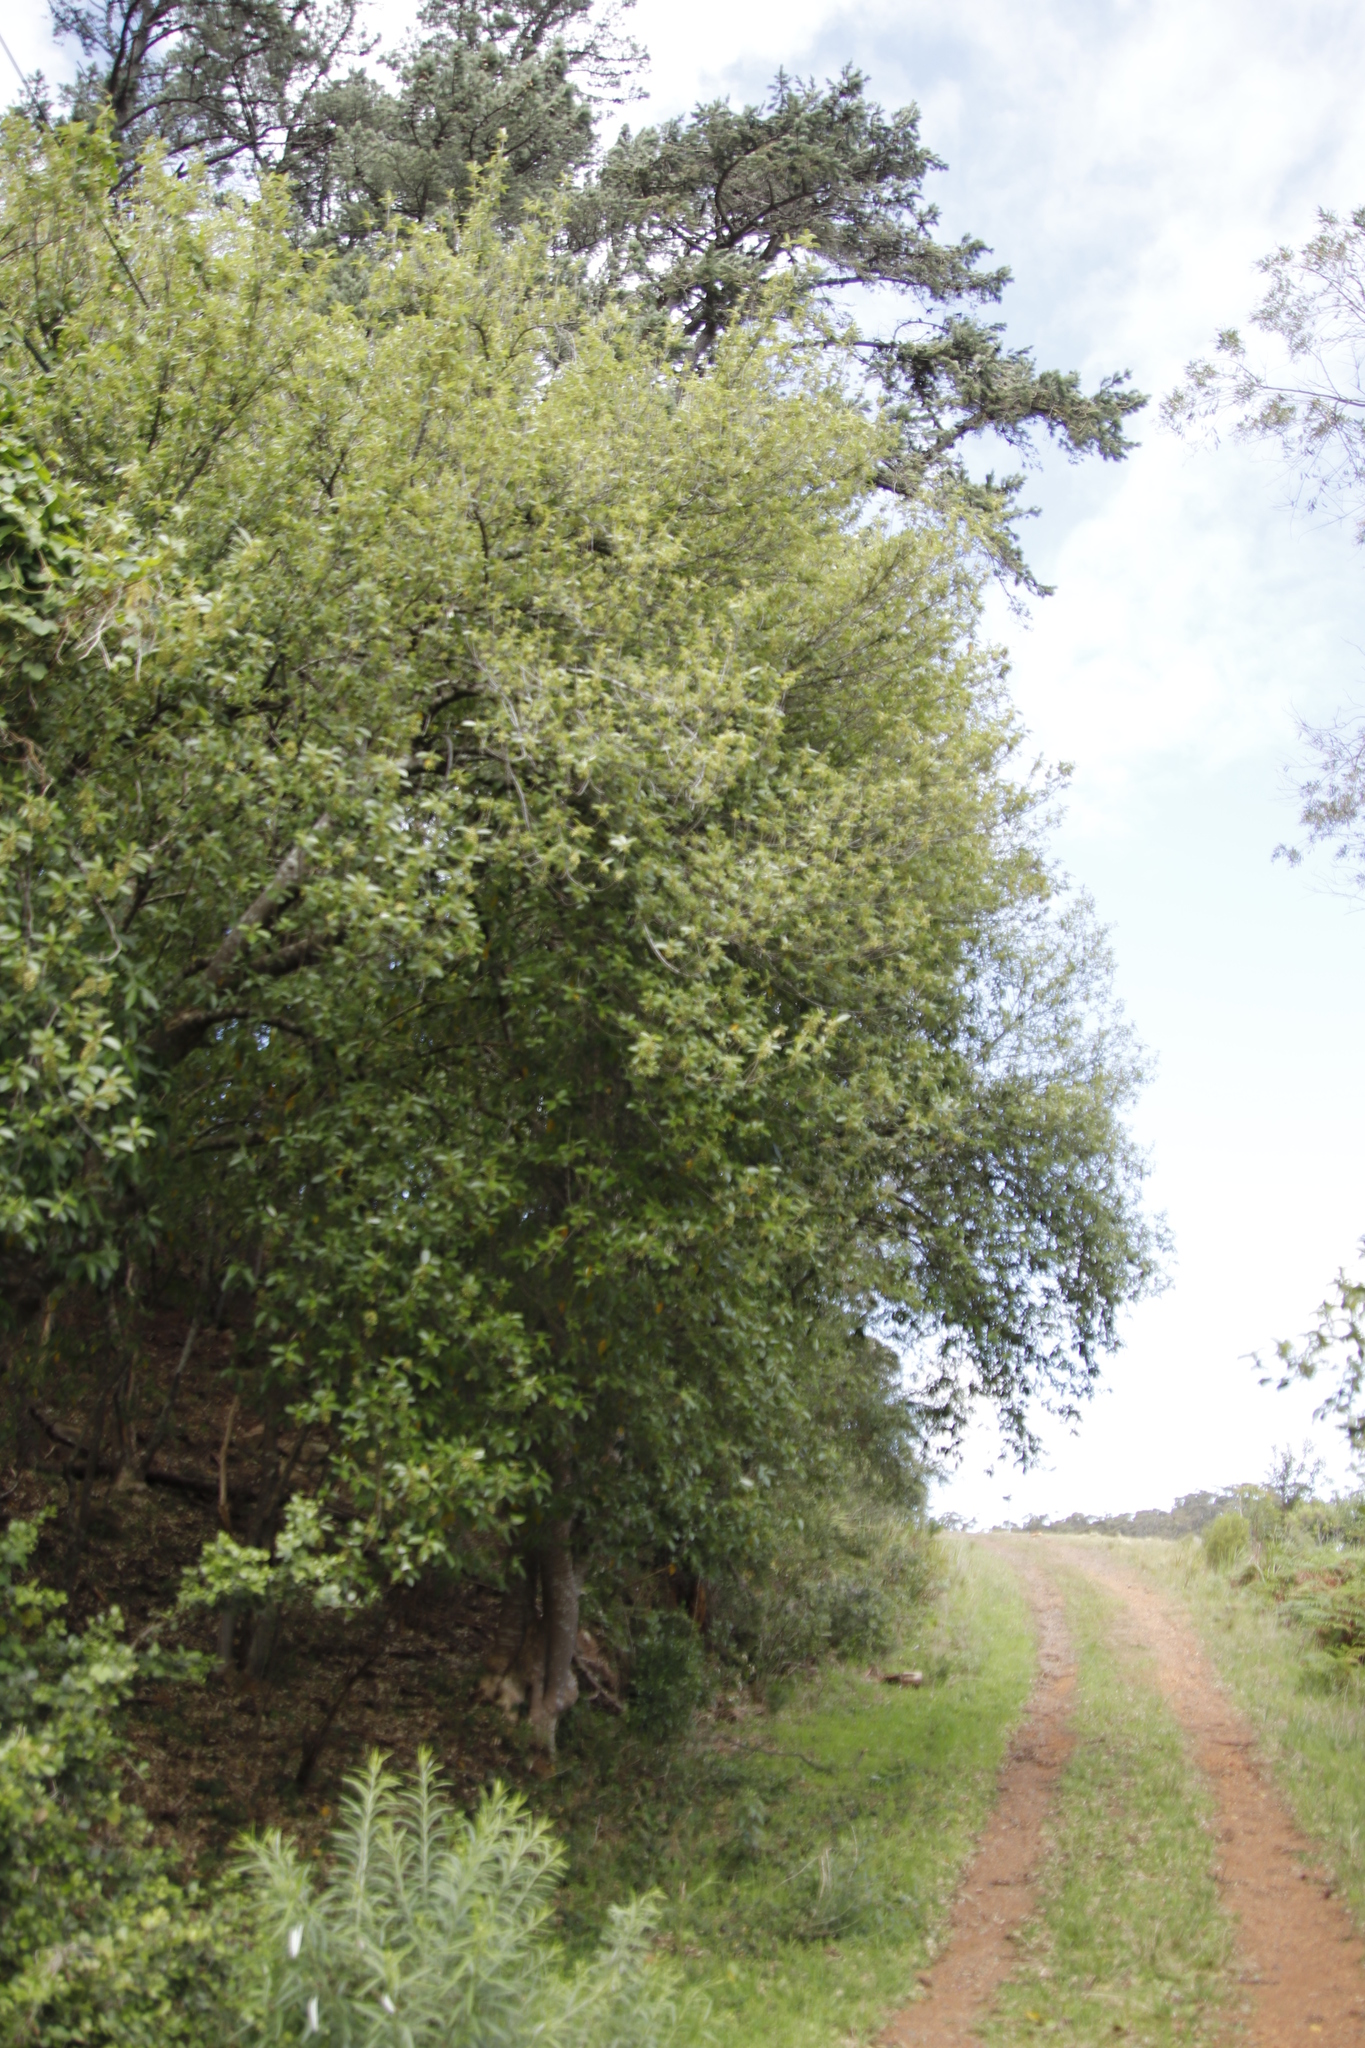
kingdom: Plantae
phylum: Tracheophyta
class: Magnoliopsida
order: Malpighiales
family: Achariaceae
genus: Kiggelaria
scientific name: Kiggelaria africana
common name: Wild peach
